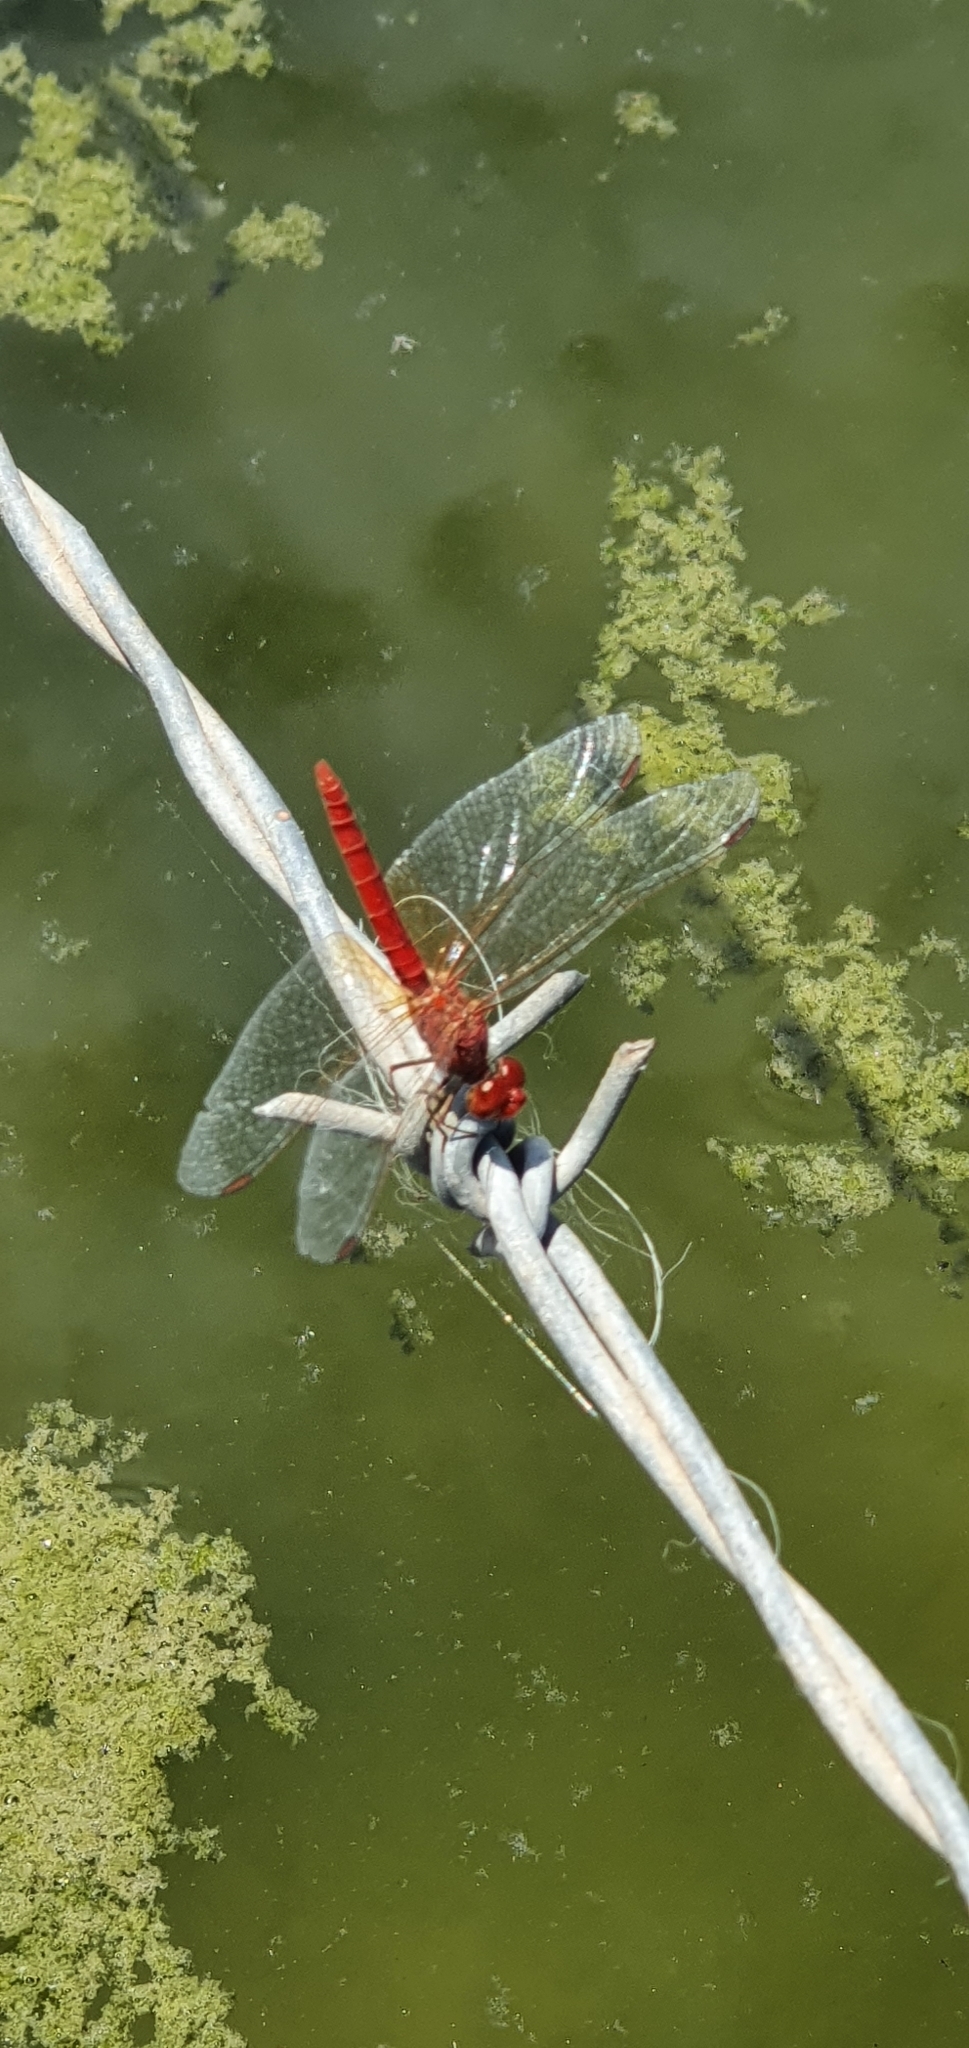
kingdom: Animalia
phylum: Arthropoda
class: Insecta
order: Odonata
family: Libellulidae
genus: Diplacodes
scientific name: Diplacodes haematodes
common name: Scarlet percher
